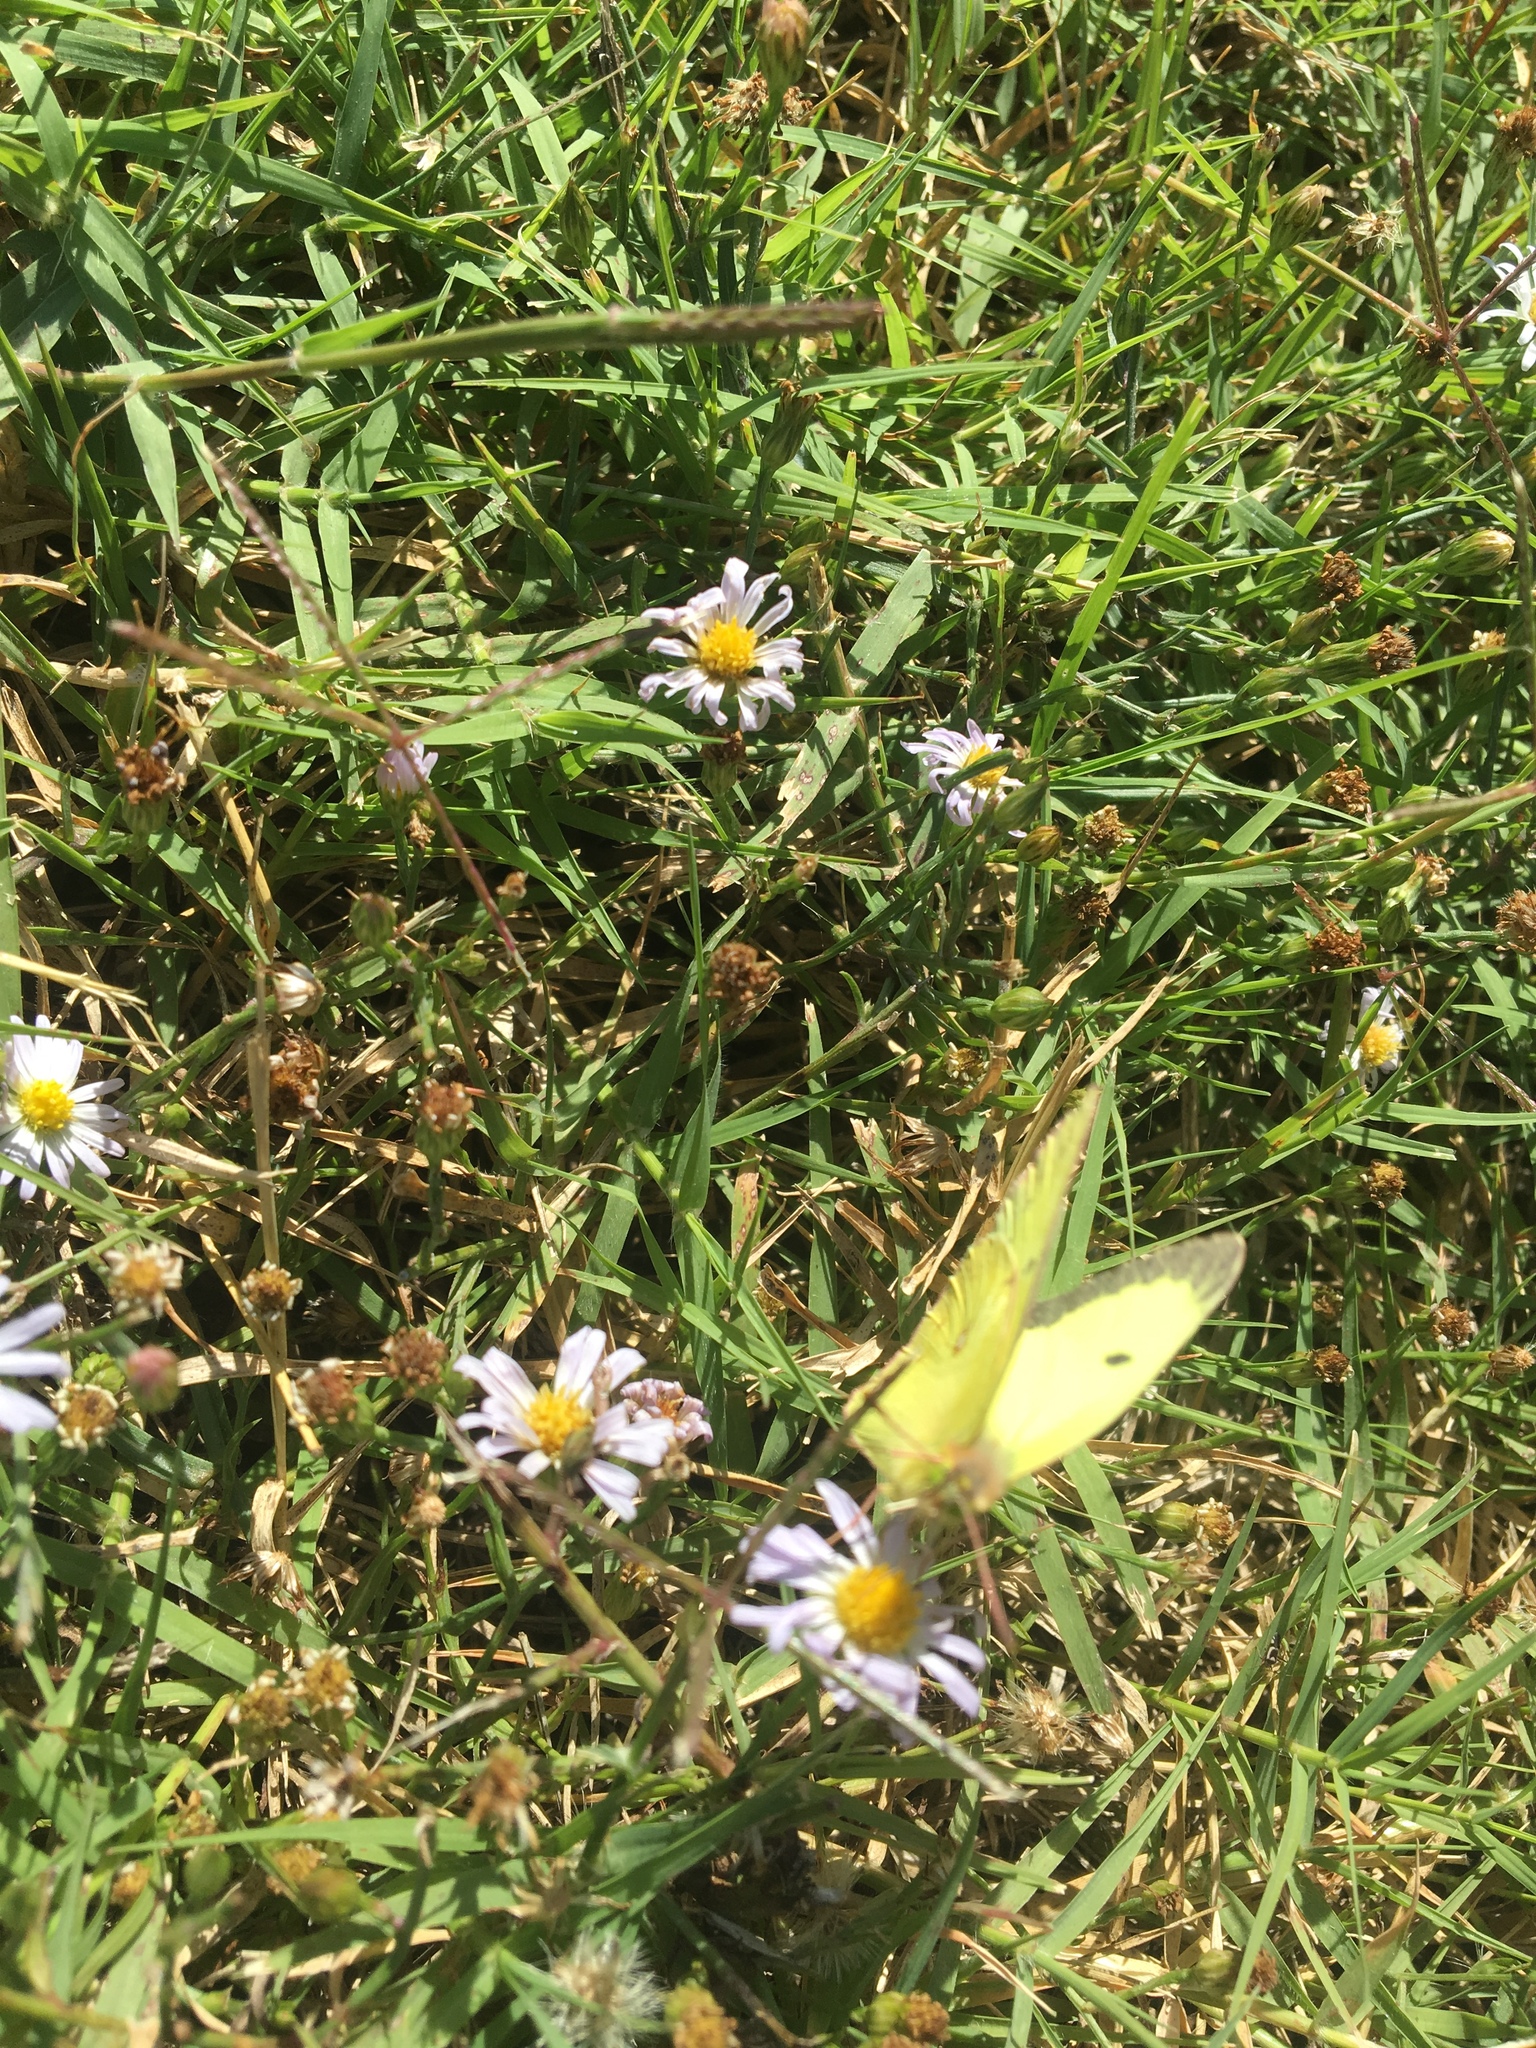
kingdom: Animalia
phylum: Arthropoda
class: Insecta
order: Lepidoptera
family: Pieridae
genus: Colias
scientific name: Colias philodice
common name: Clouded sulphur
